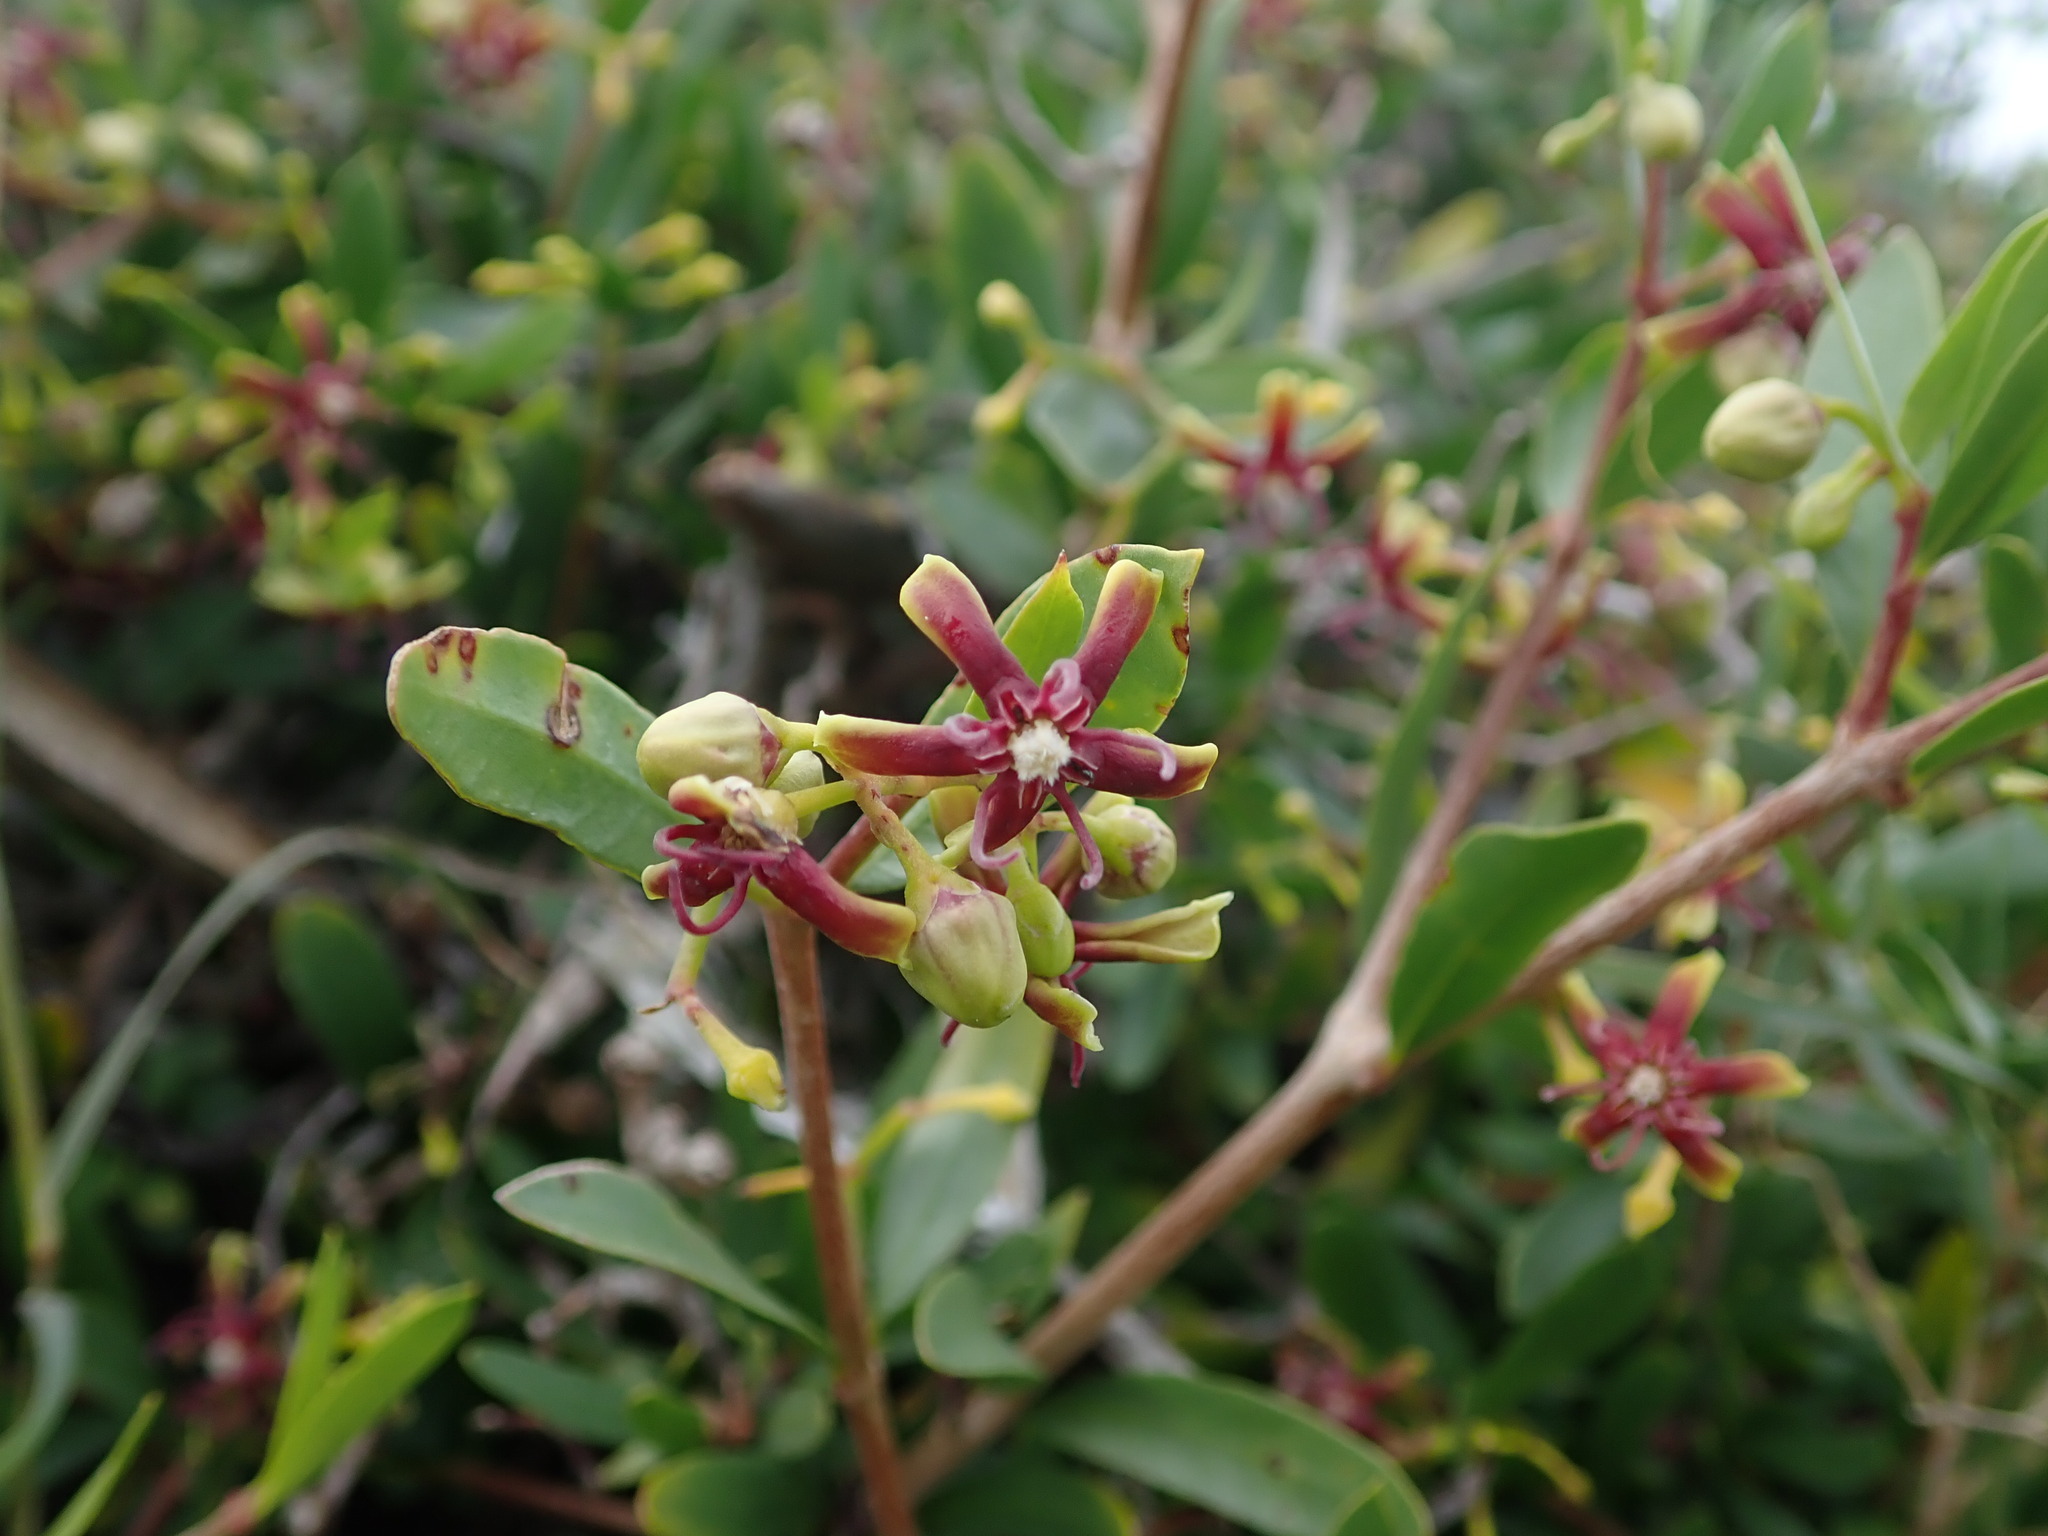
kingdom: Plantae
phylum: Tracheophyta
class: Magnoliopsida
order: Gentianales
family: Apocynaceae
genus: Periploca
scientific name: Periploca laevigata
